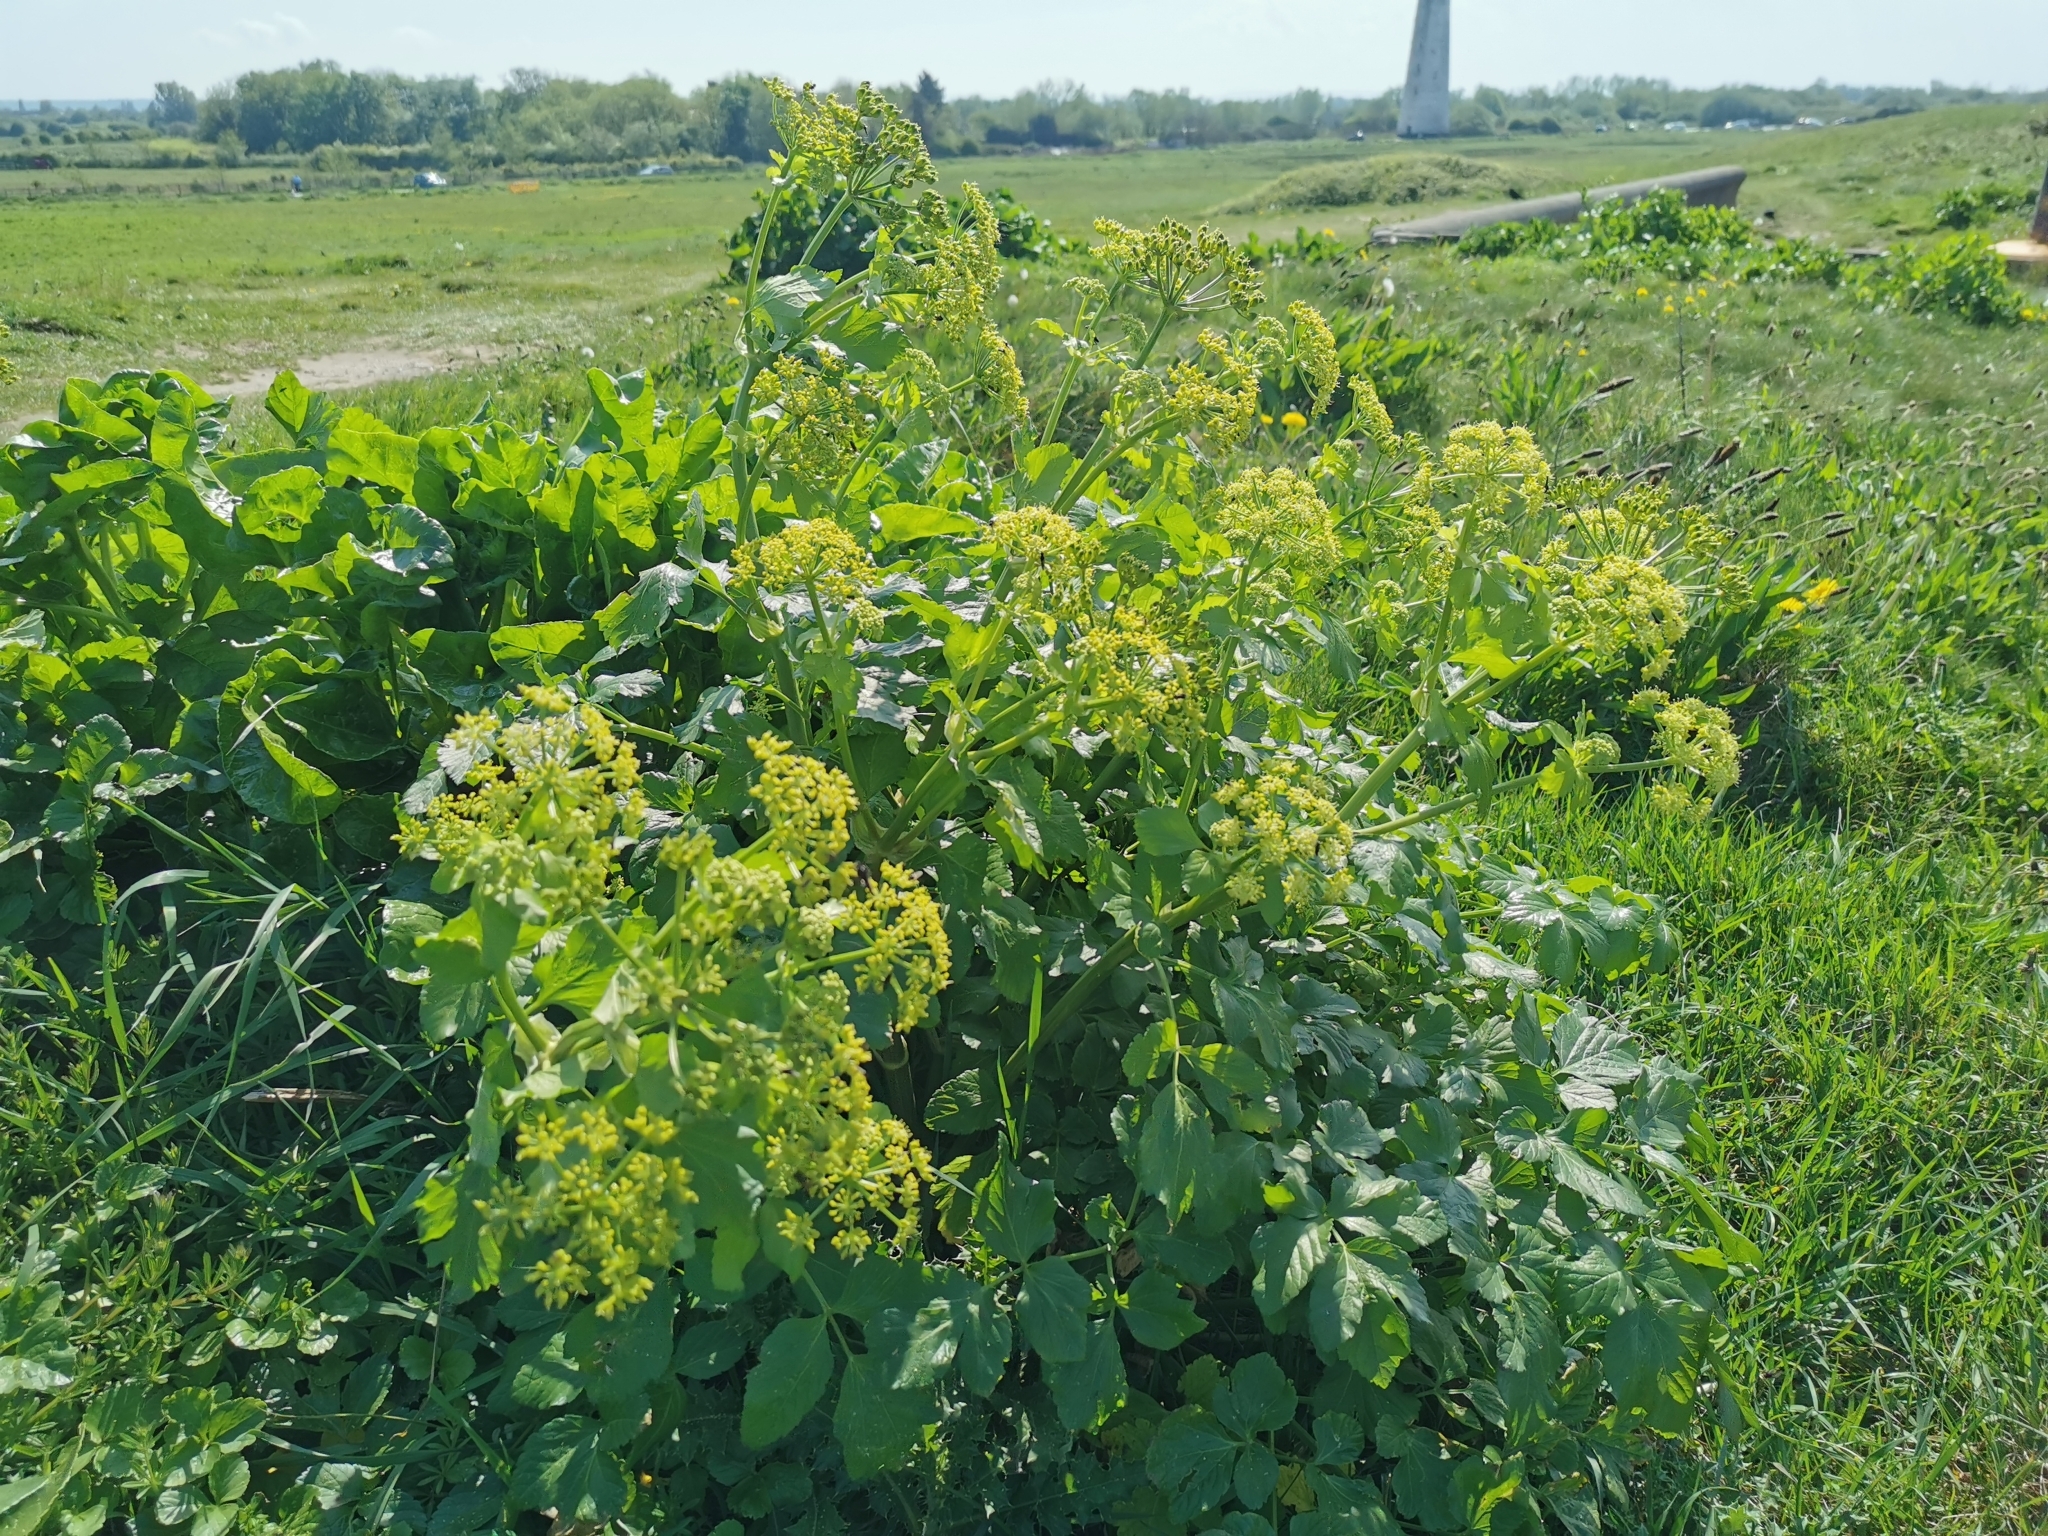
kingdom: Plantae
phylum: Tracheophyta
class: Magnoliopsida
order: Apiales
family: Apiaceae
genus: Smyrnium
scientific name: Smyrnium olusatrum
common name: Alexanders
